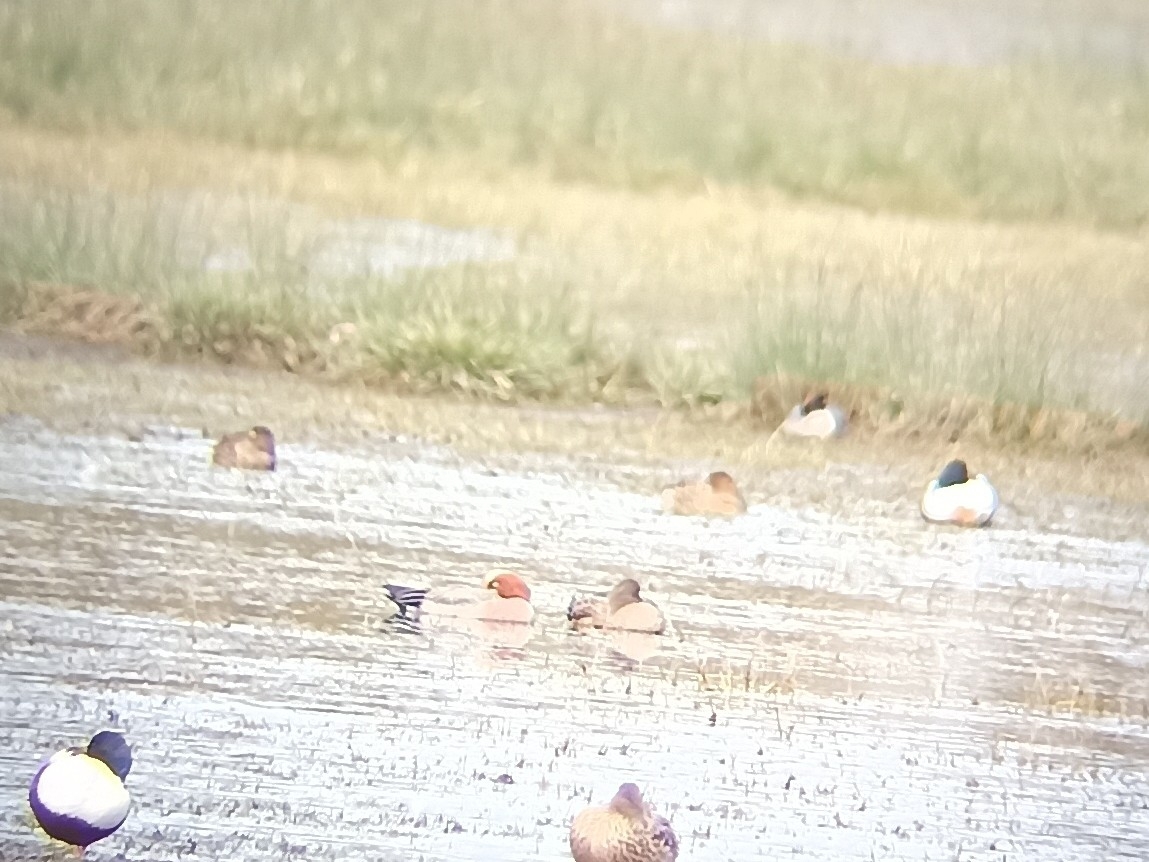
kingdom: Animalia
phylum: Chordata
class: Aves
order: Anseriformes
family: Anatidae
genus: Mareca
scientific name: Mareca penelope
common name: Eurasian wigeon
